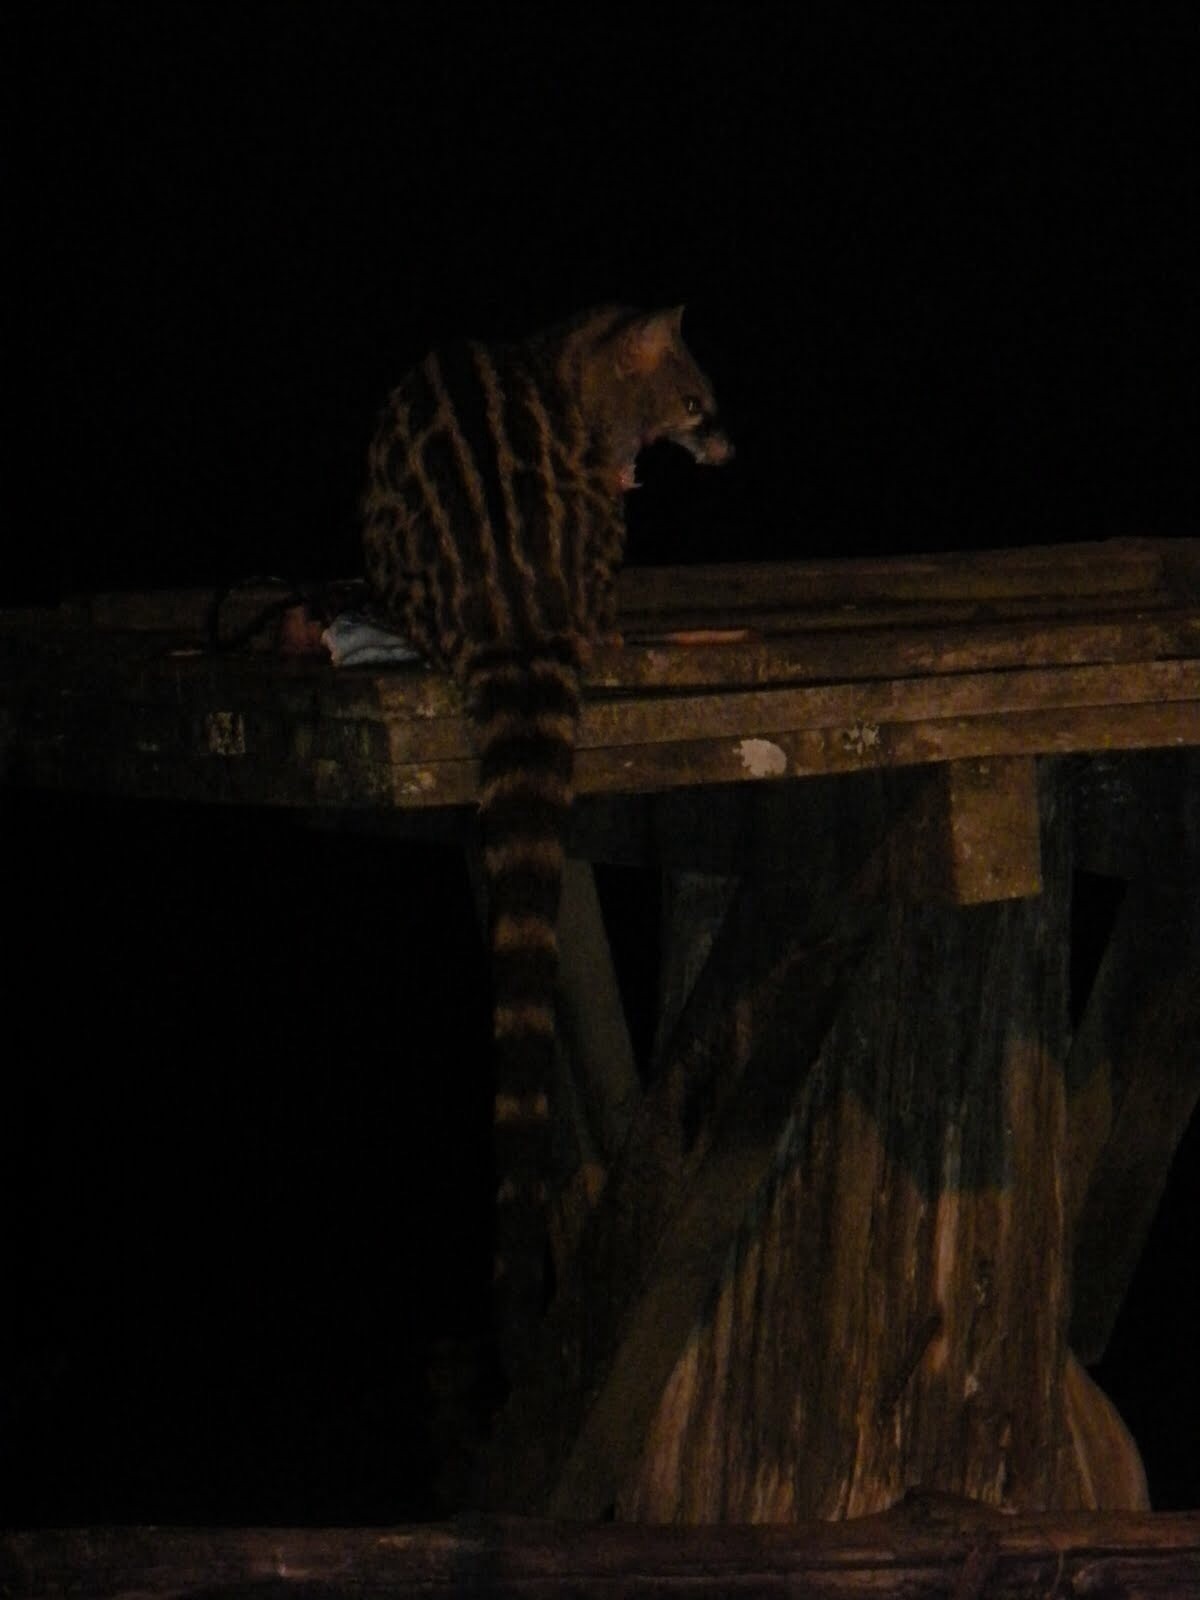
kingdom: Animalia
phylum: Chordata
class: Mammalia
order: Carnivora
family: Viverridae
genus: Genetta
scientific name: Genetta maculata
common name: Rusty-spotted genet
